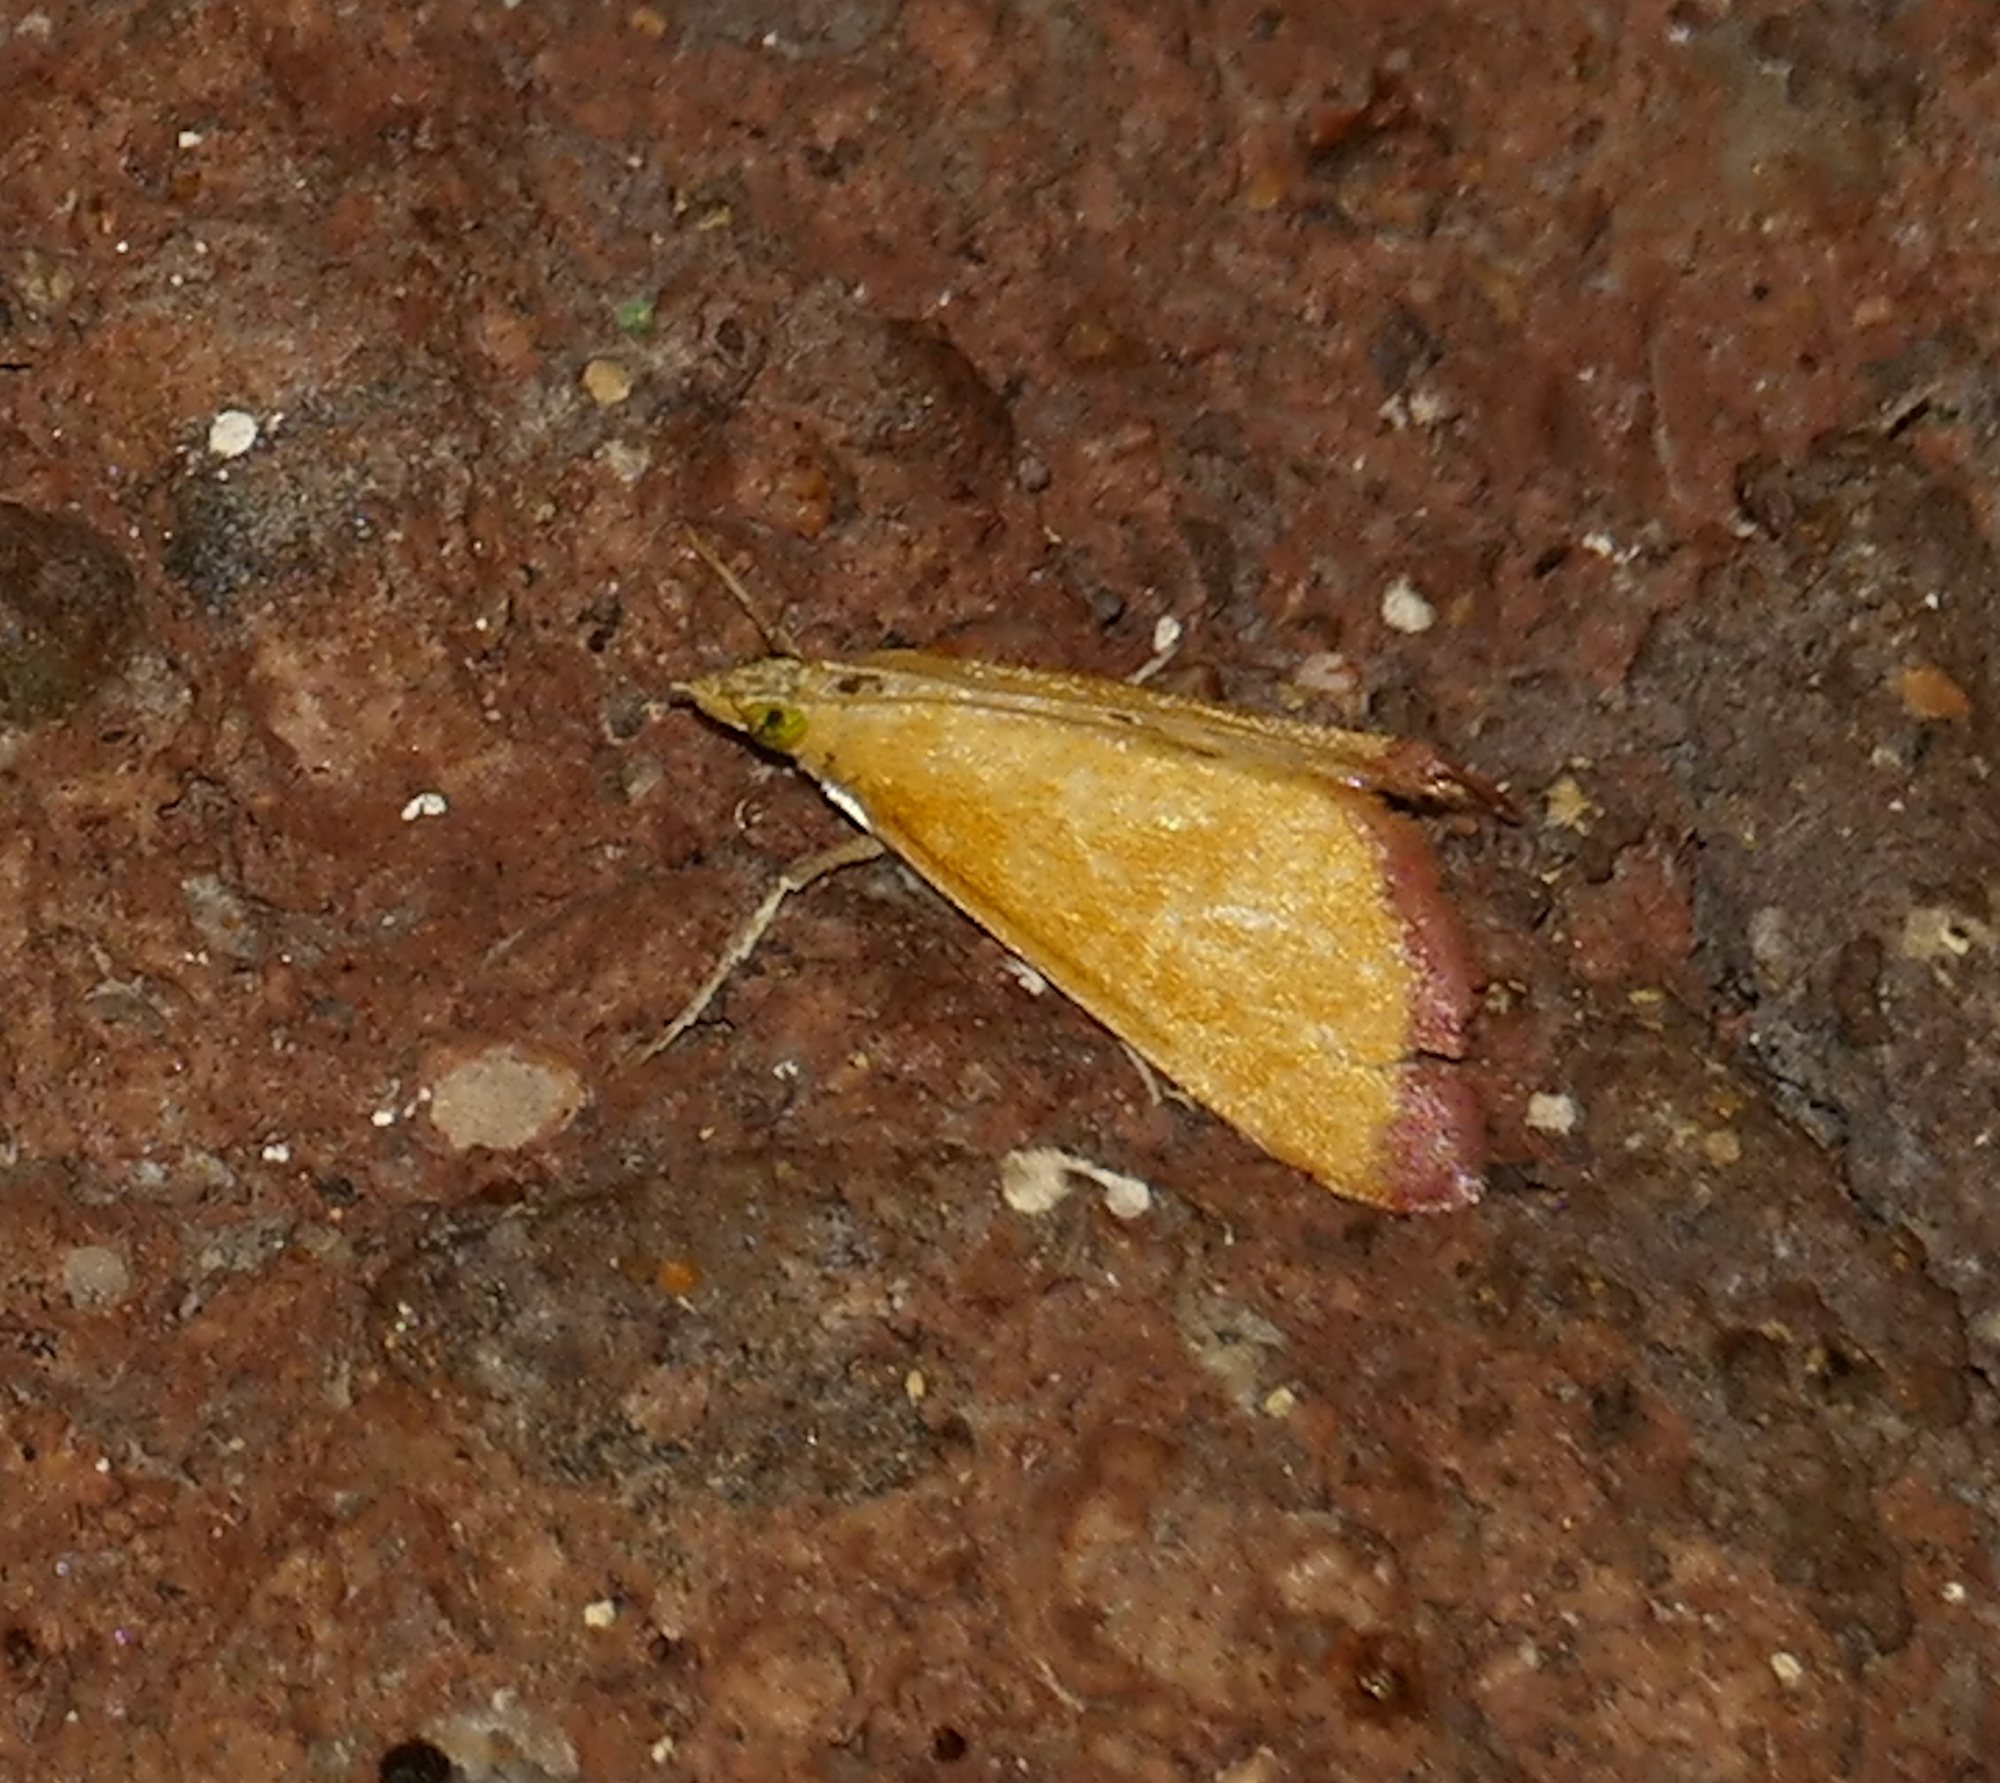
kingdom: Animalia
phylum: Arthropoda
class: Insecta
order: Lepidoptera
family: Crambidae
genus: Xanthostege
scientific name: Xanthostege plana
